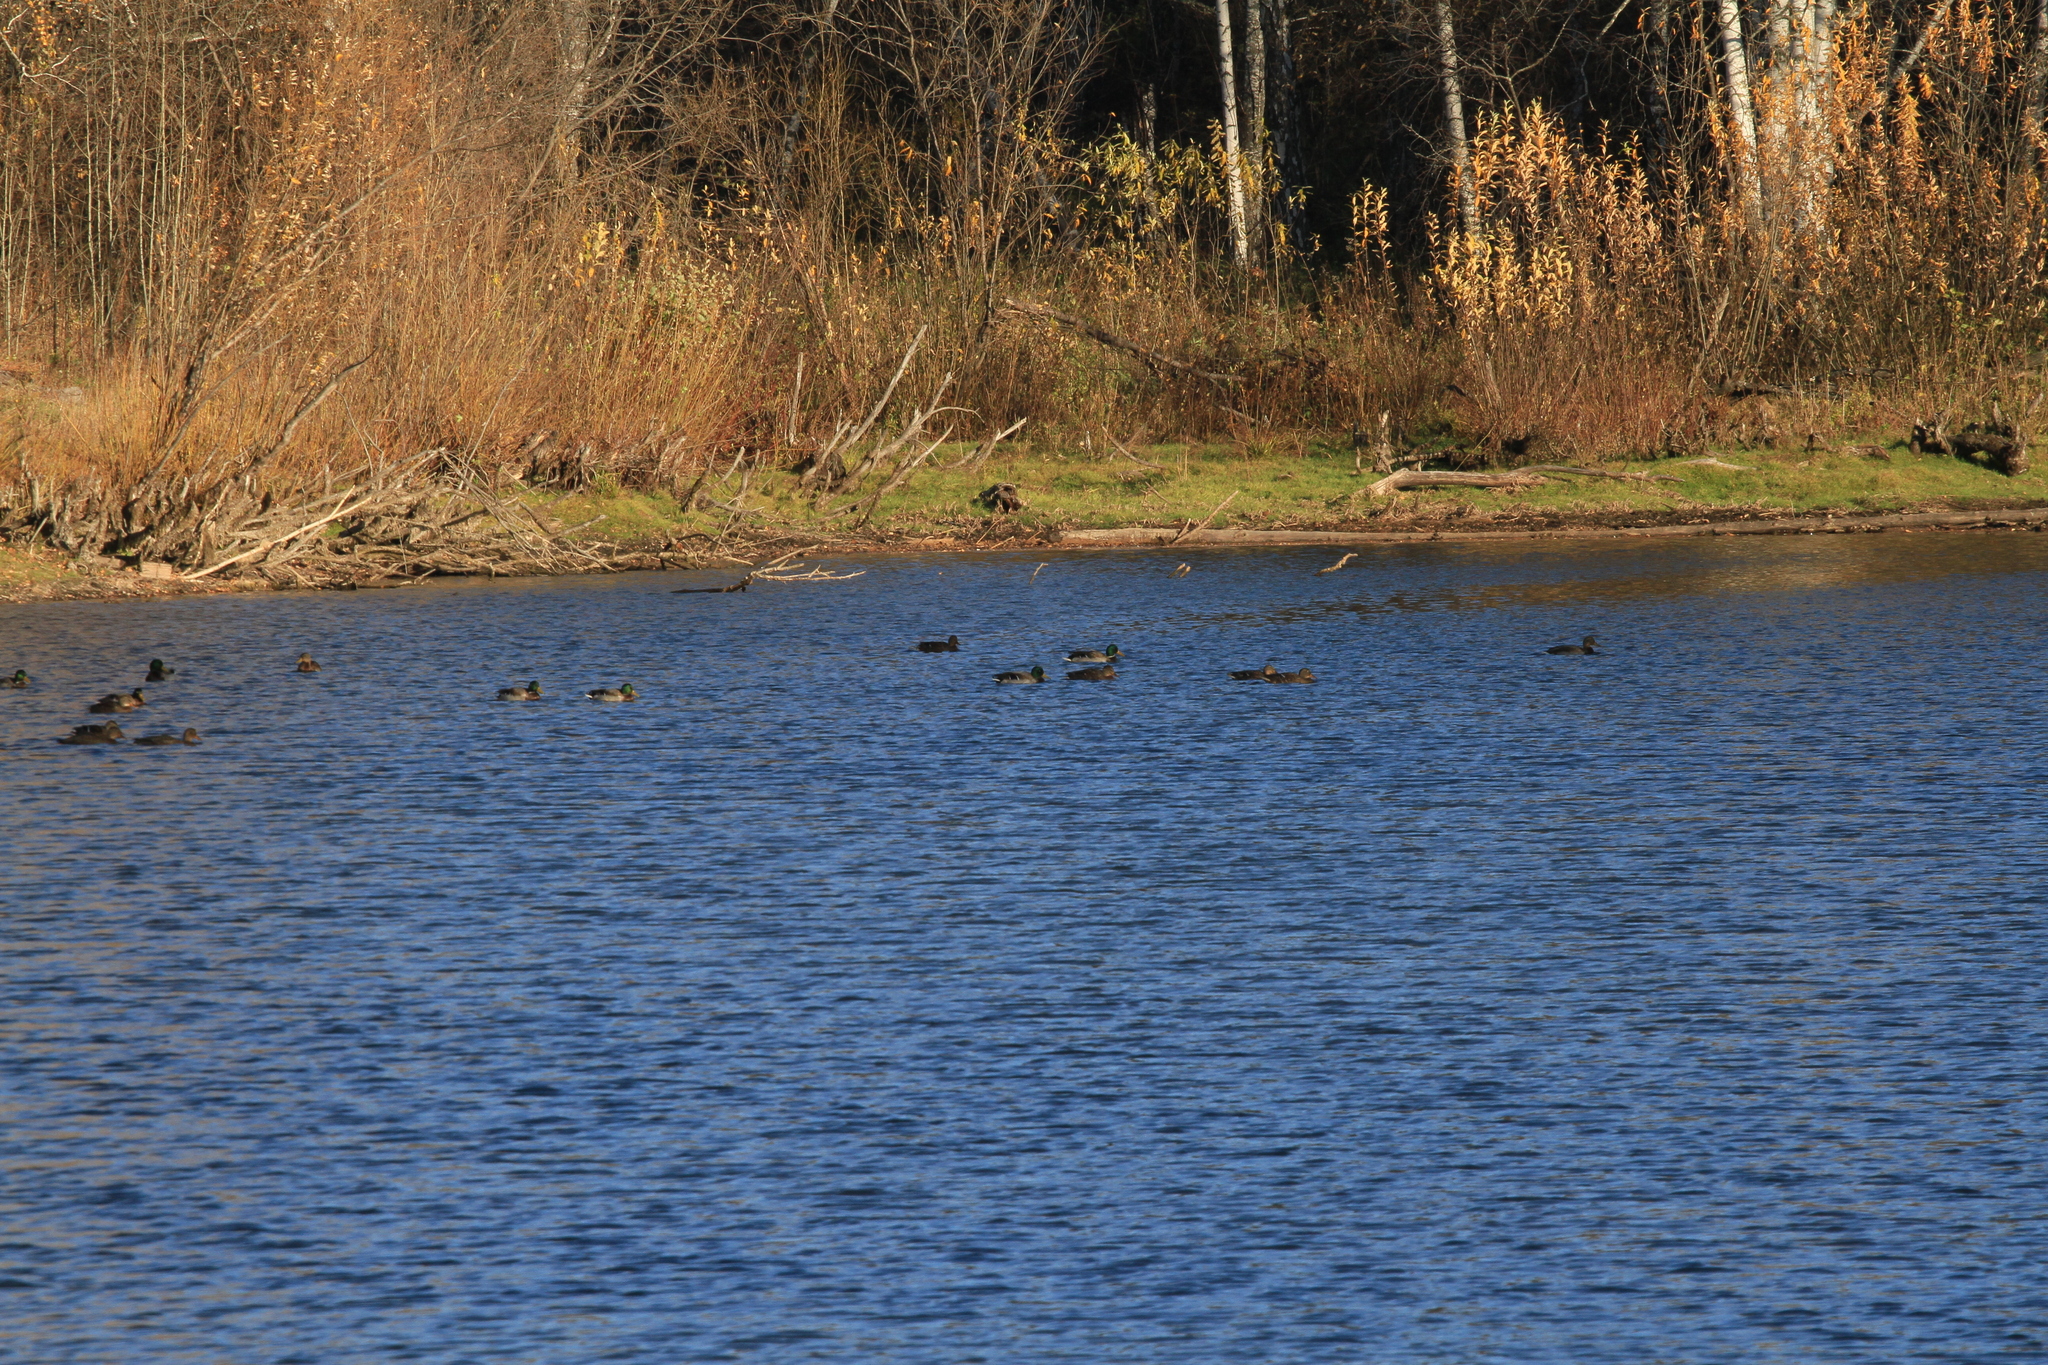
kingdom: Animalia
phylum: Chordata
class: Aves
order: Anseriformes
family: Anatidae
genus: Anas
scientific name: Anas platyrhynchos
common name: Mallard
